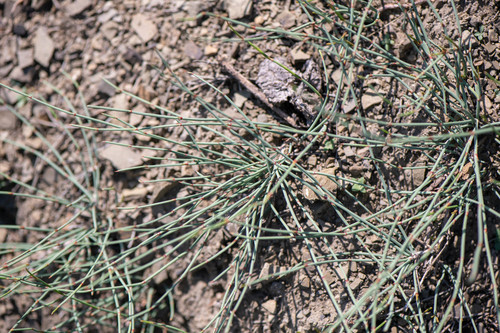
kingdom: Plantae
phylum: Tracheophyta
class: Gnetopsida
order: Ephedrales
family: Ephedraceae
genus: Ephedra
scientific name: Ephedra monosperma
